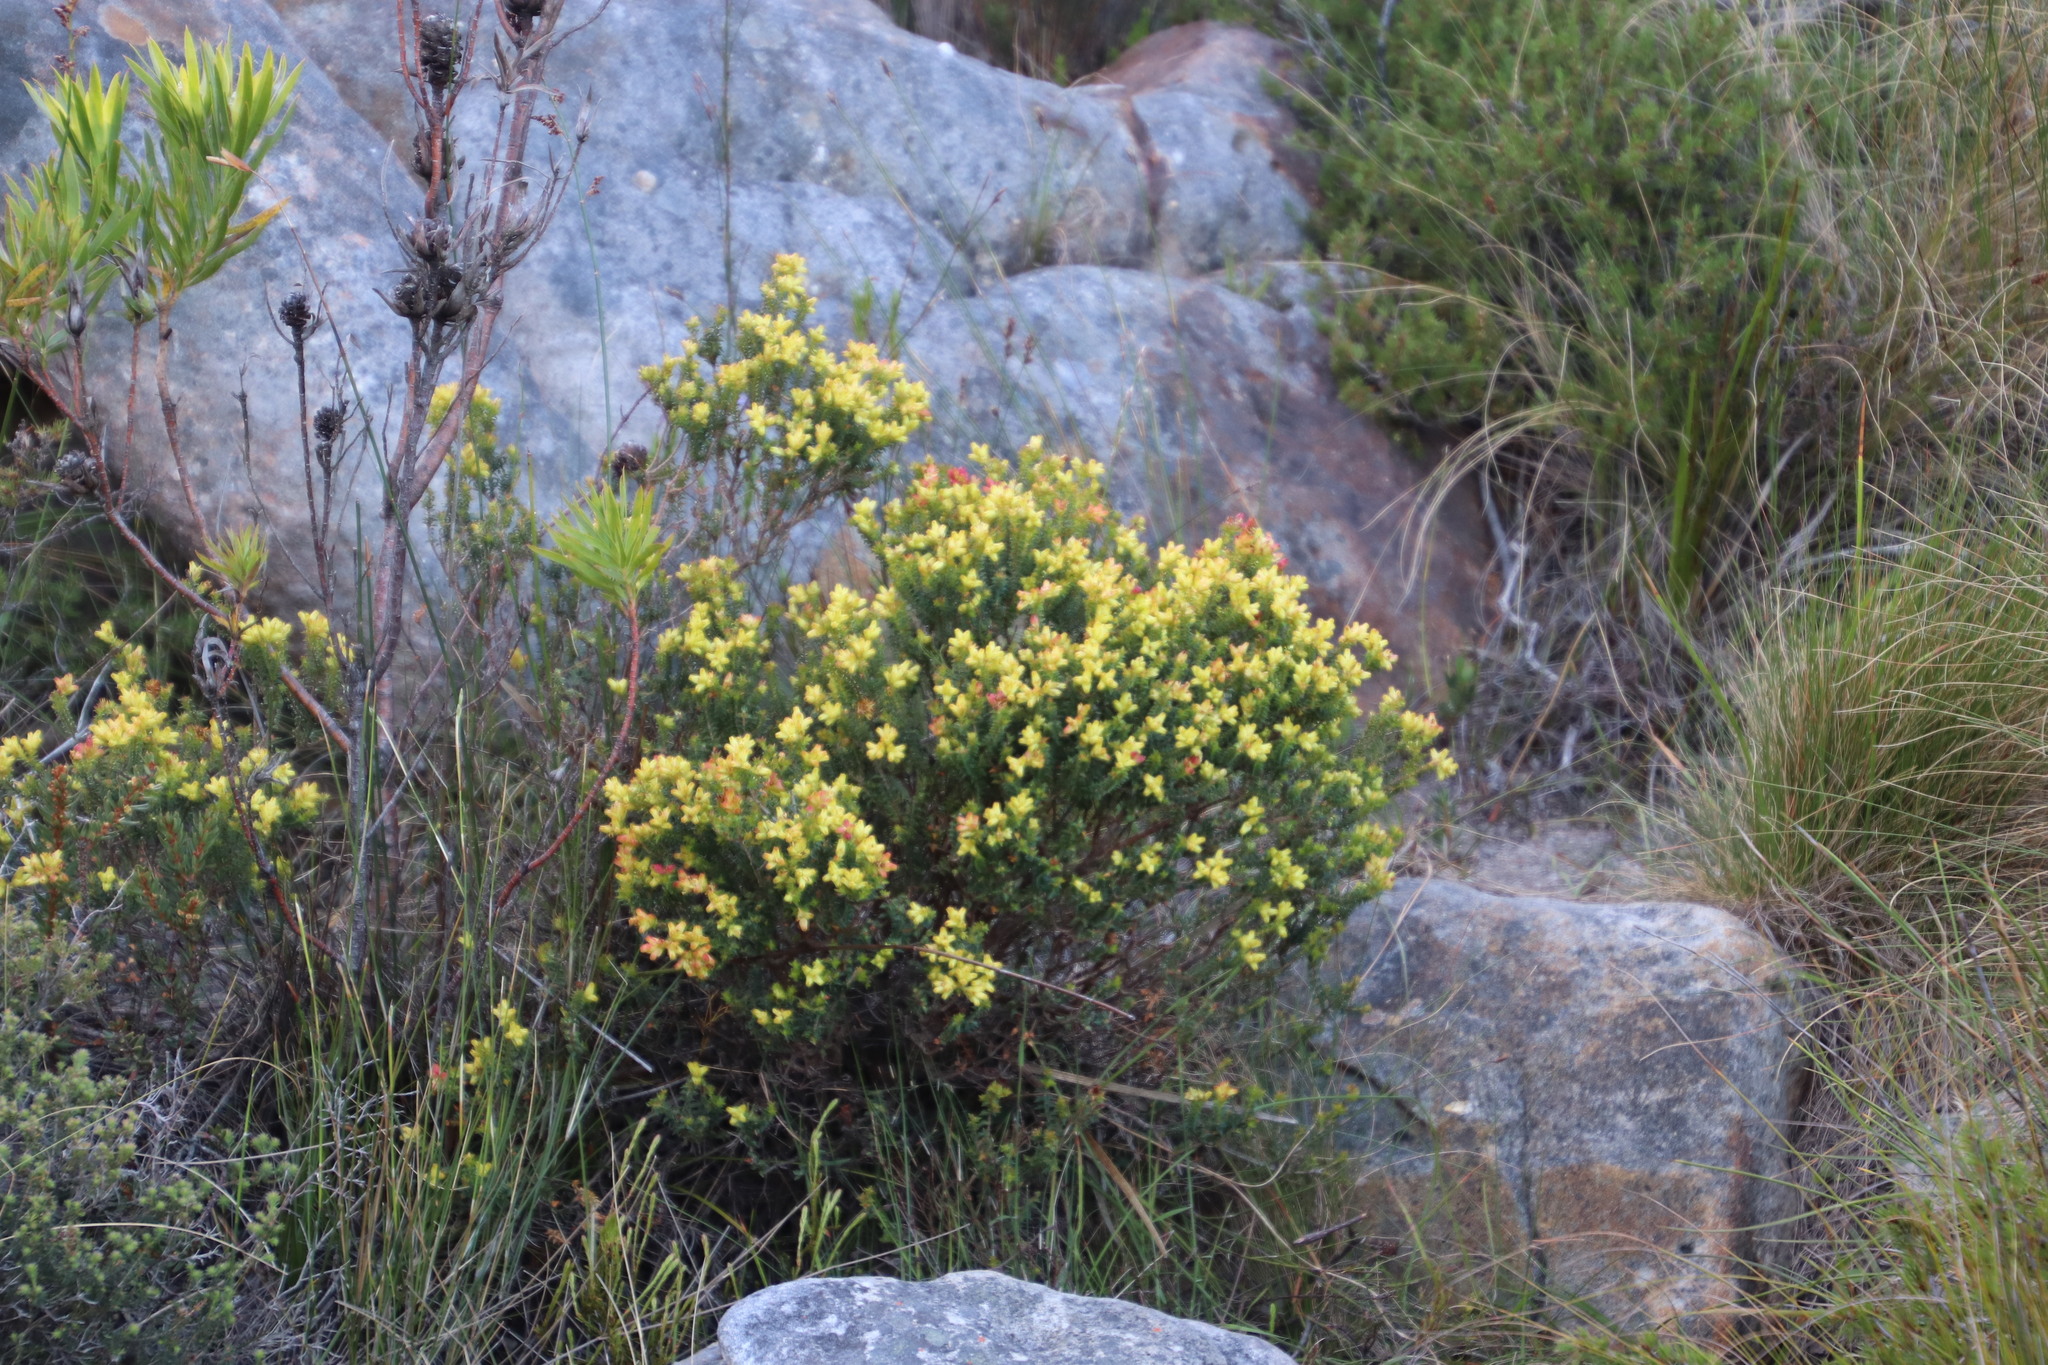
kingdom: Plantae
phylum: Tracheophyta
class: Magnoliopsida
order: Myrtales
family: Penaeaceae
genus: Penaea
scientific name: Penaea mucronata
